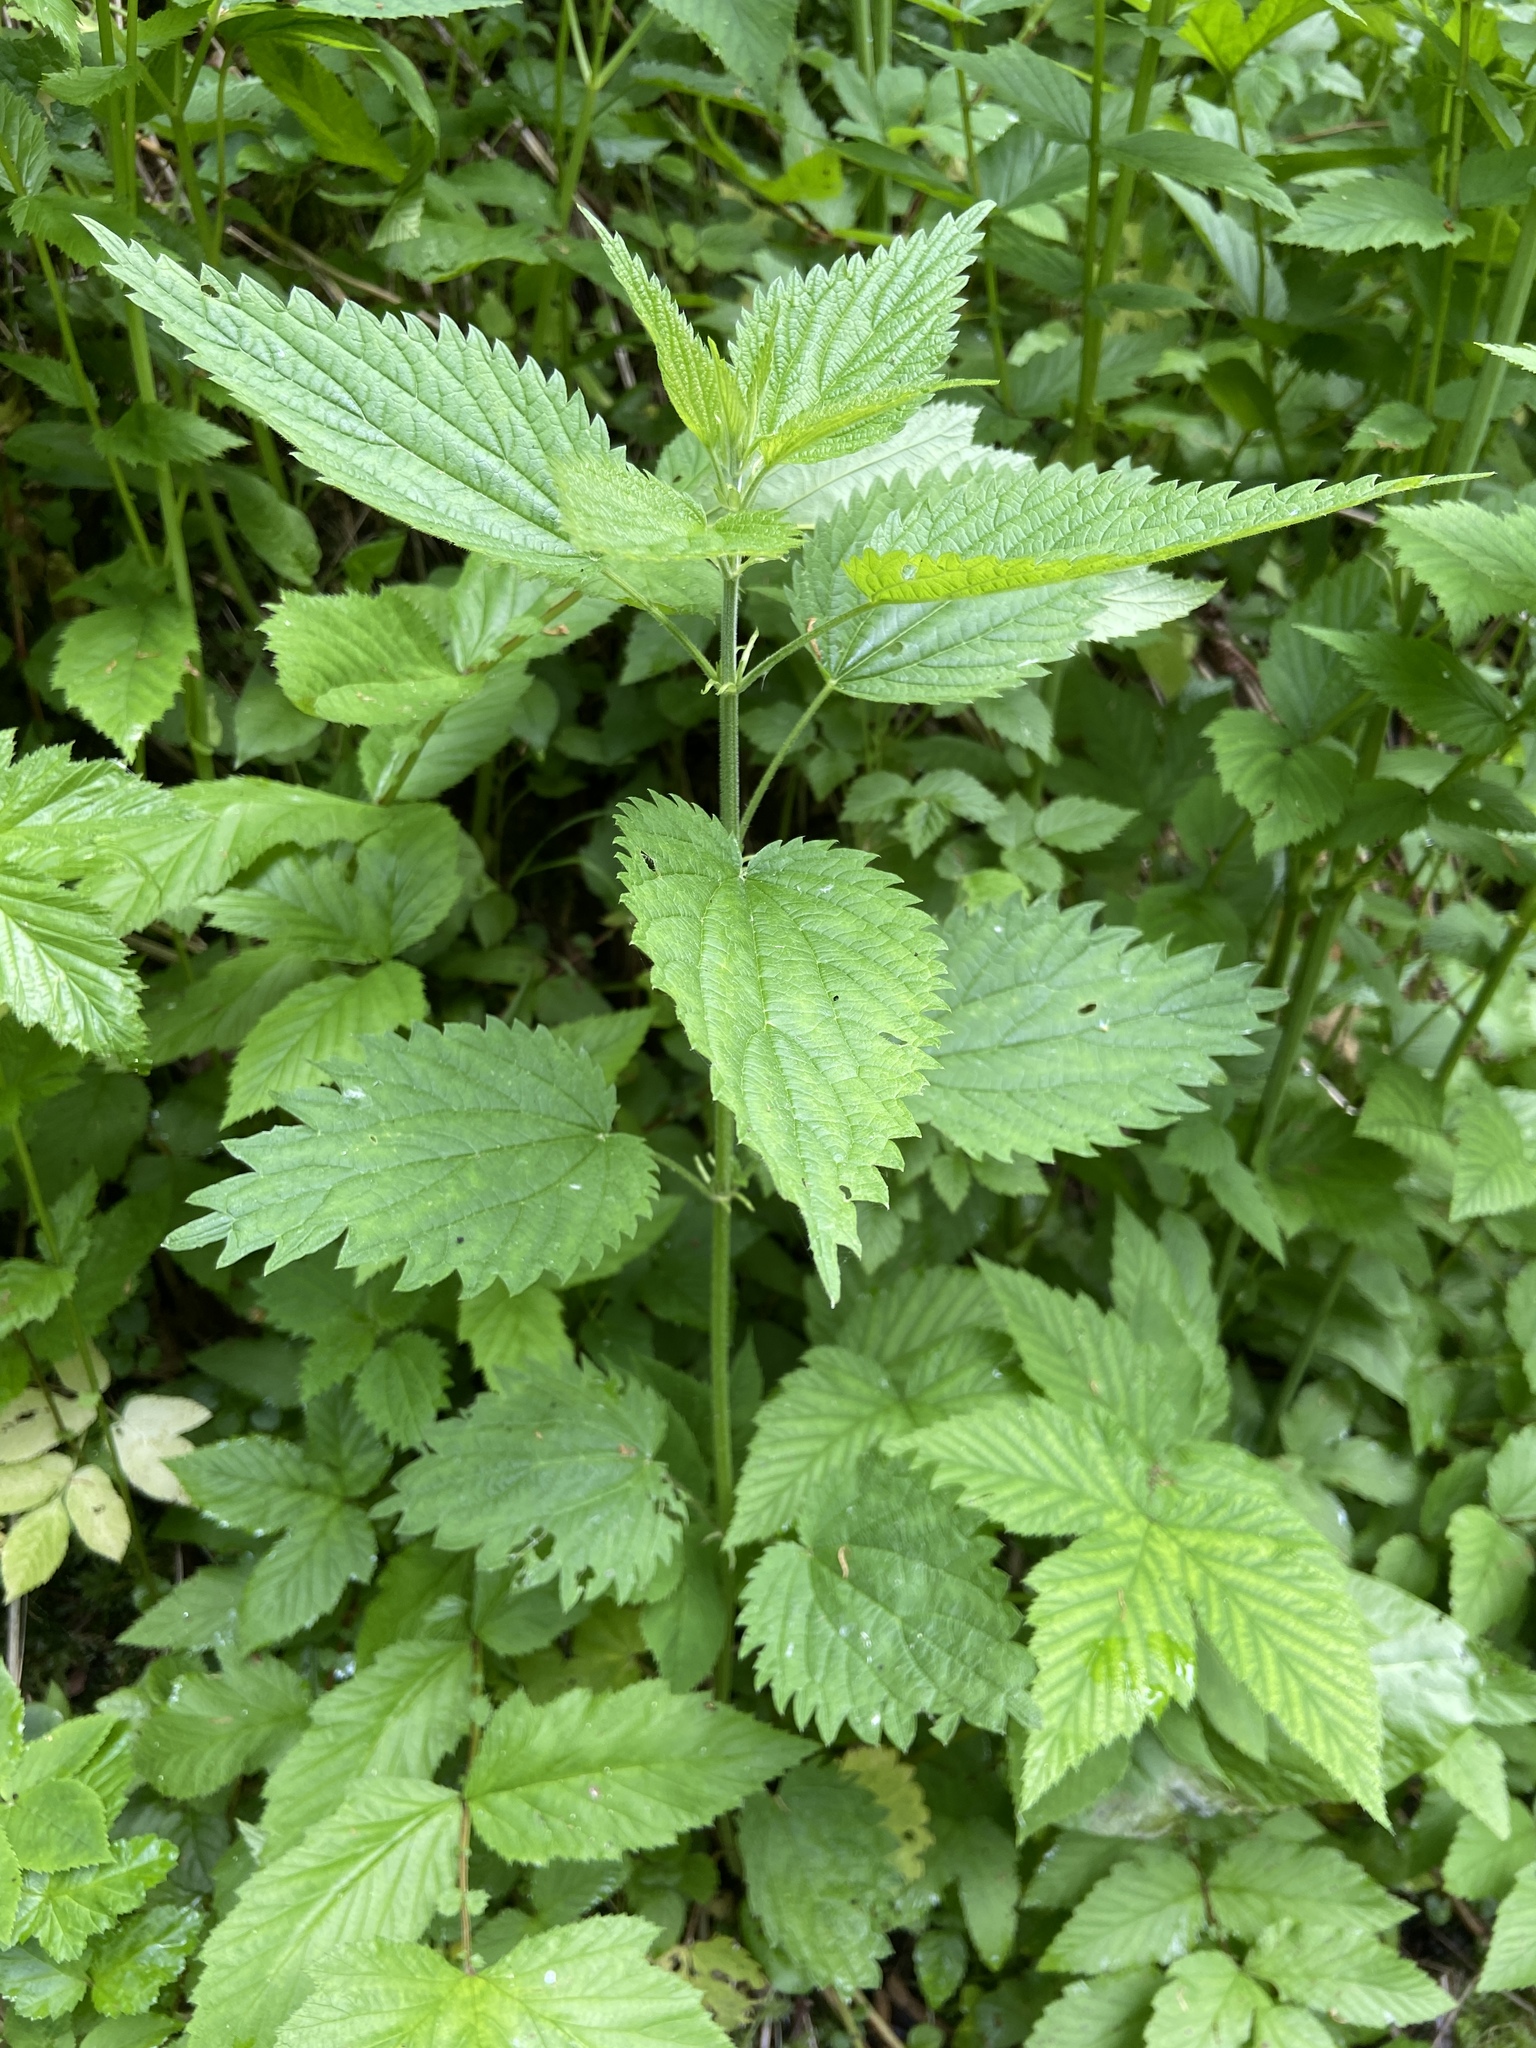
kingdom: Plantae
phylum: Tracheophyta
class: Magnoliopsida
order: Rosales
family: Urticaceae
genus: Urtica
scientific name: Urtica dioica
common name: Common nettle
